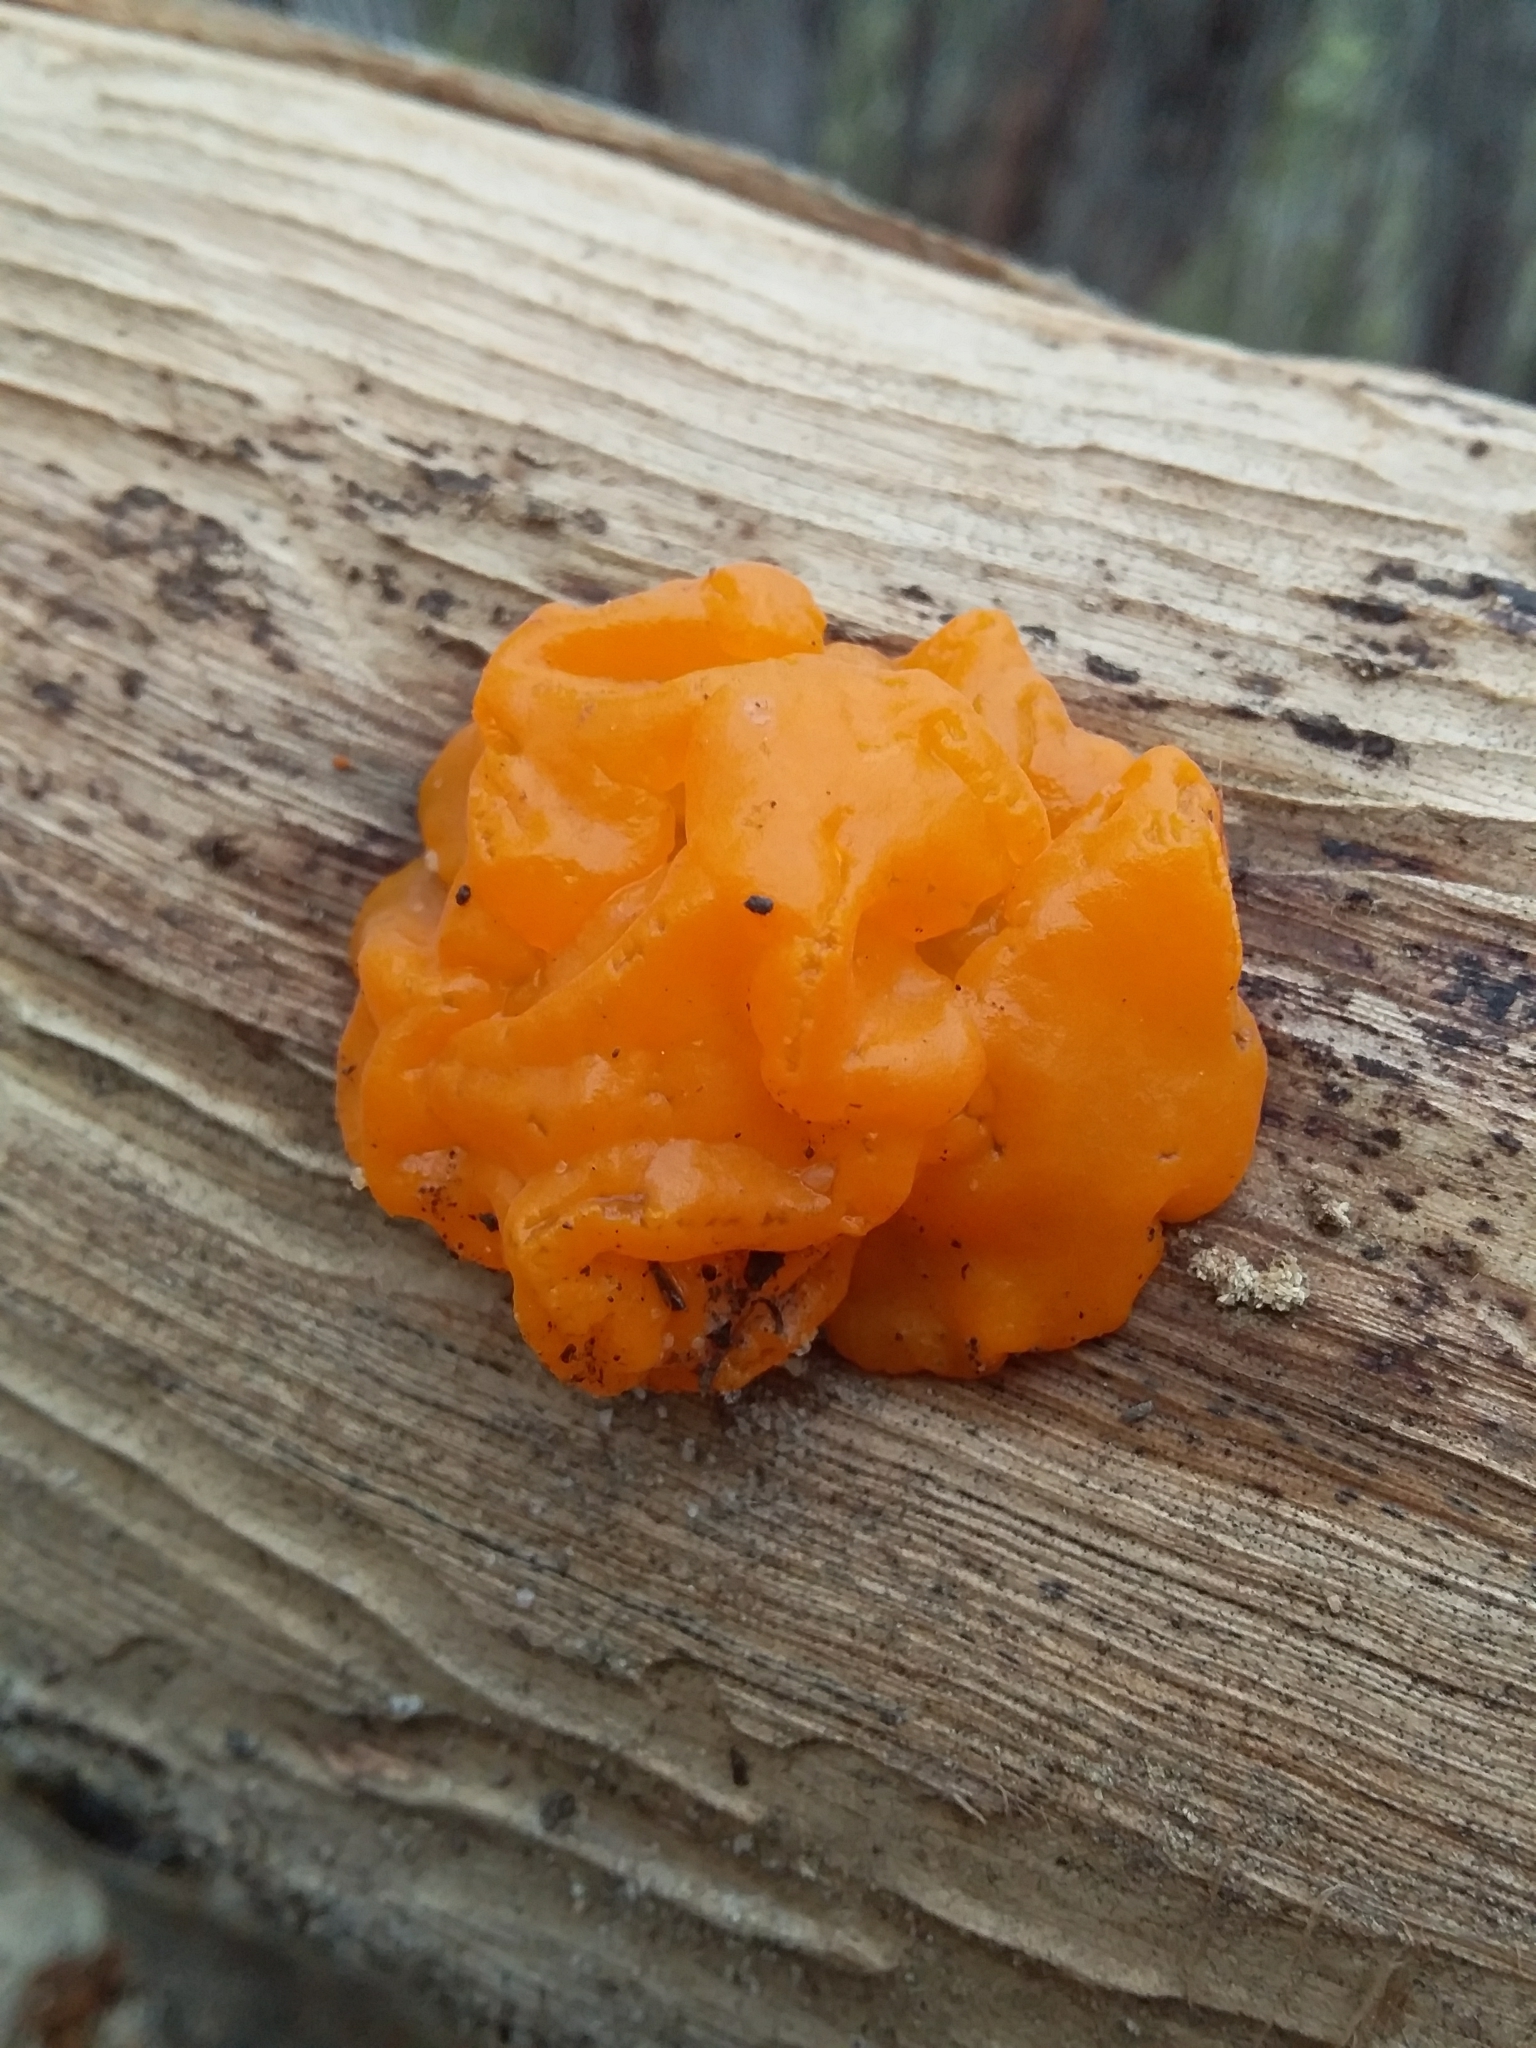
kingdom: Fungi
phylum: Basidiomycota
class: Tremellomycetes
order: Tremellales
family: Tremellaceae
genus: Tremella
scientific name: Tremella mesenterica
